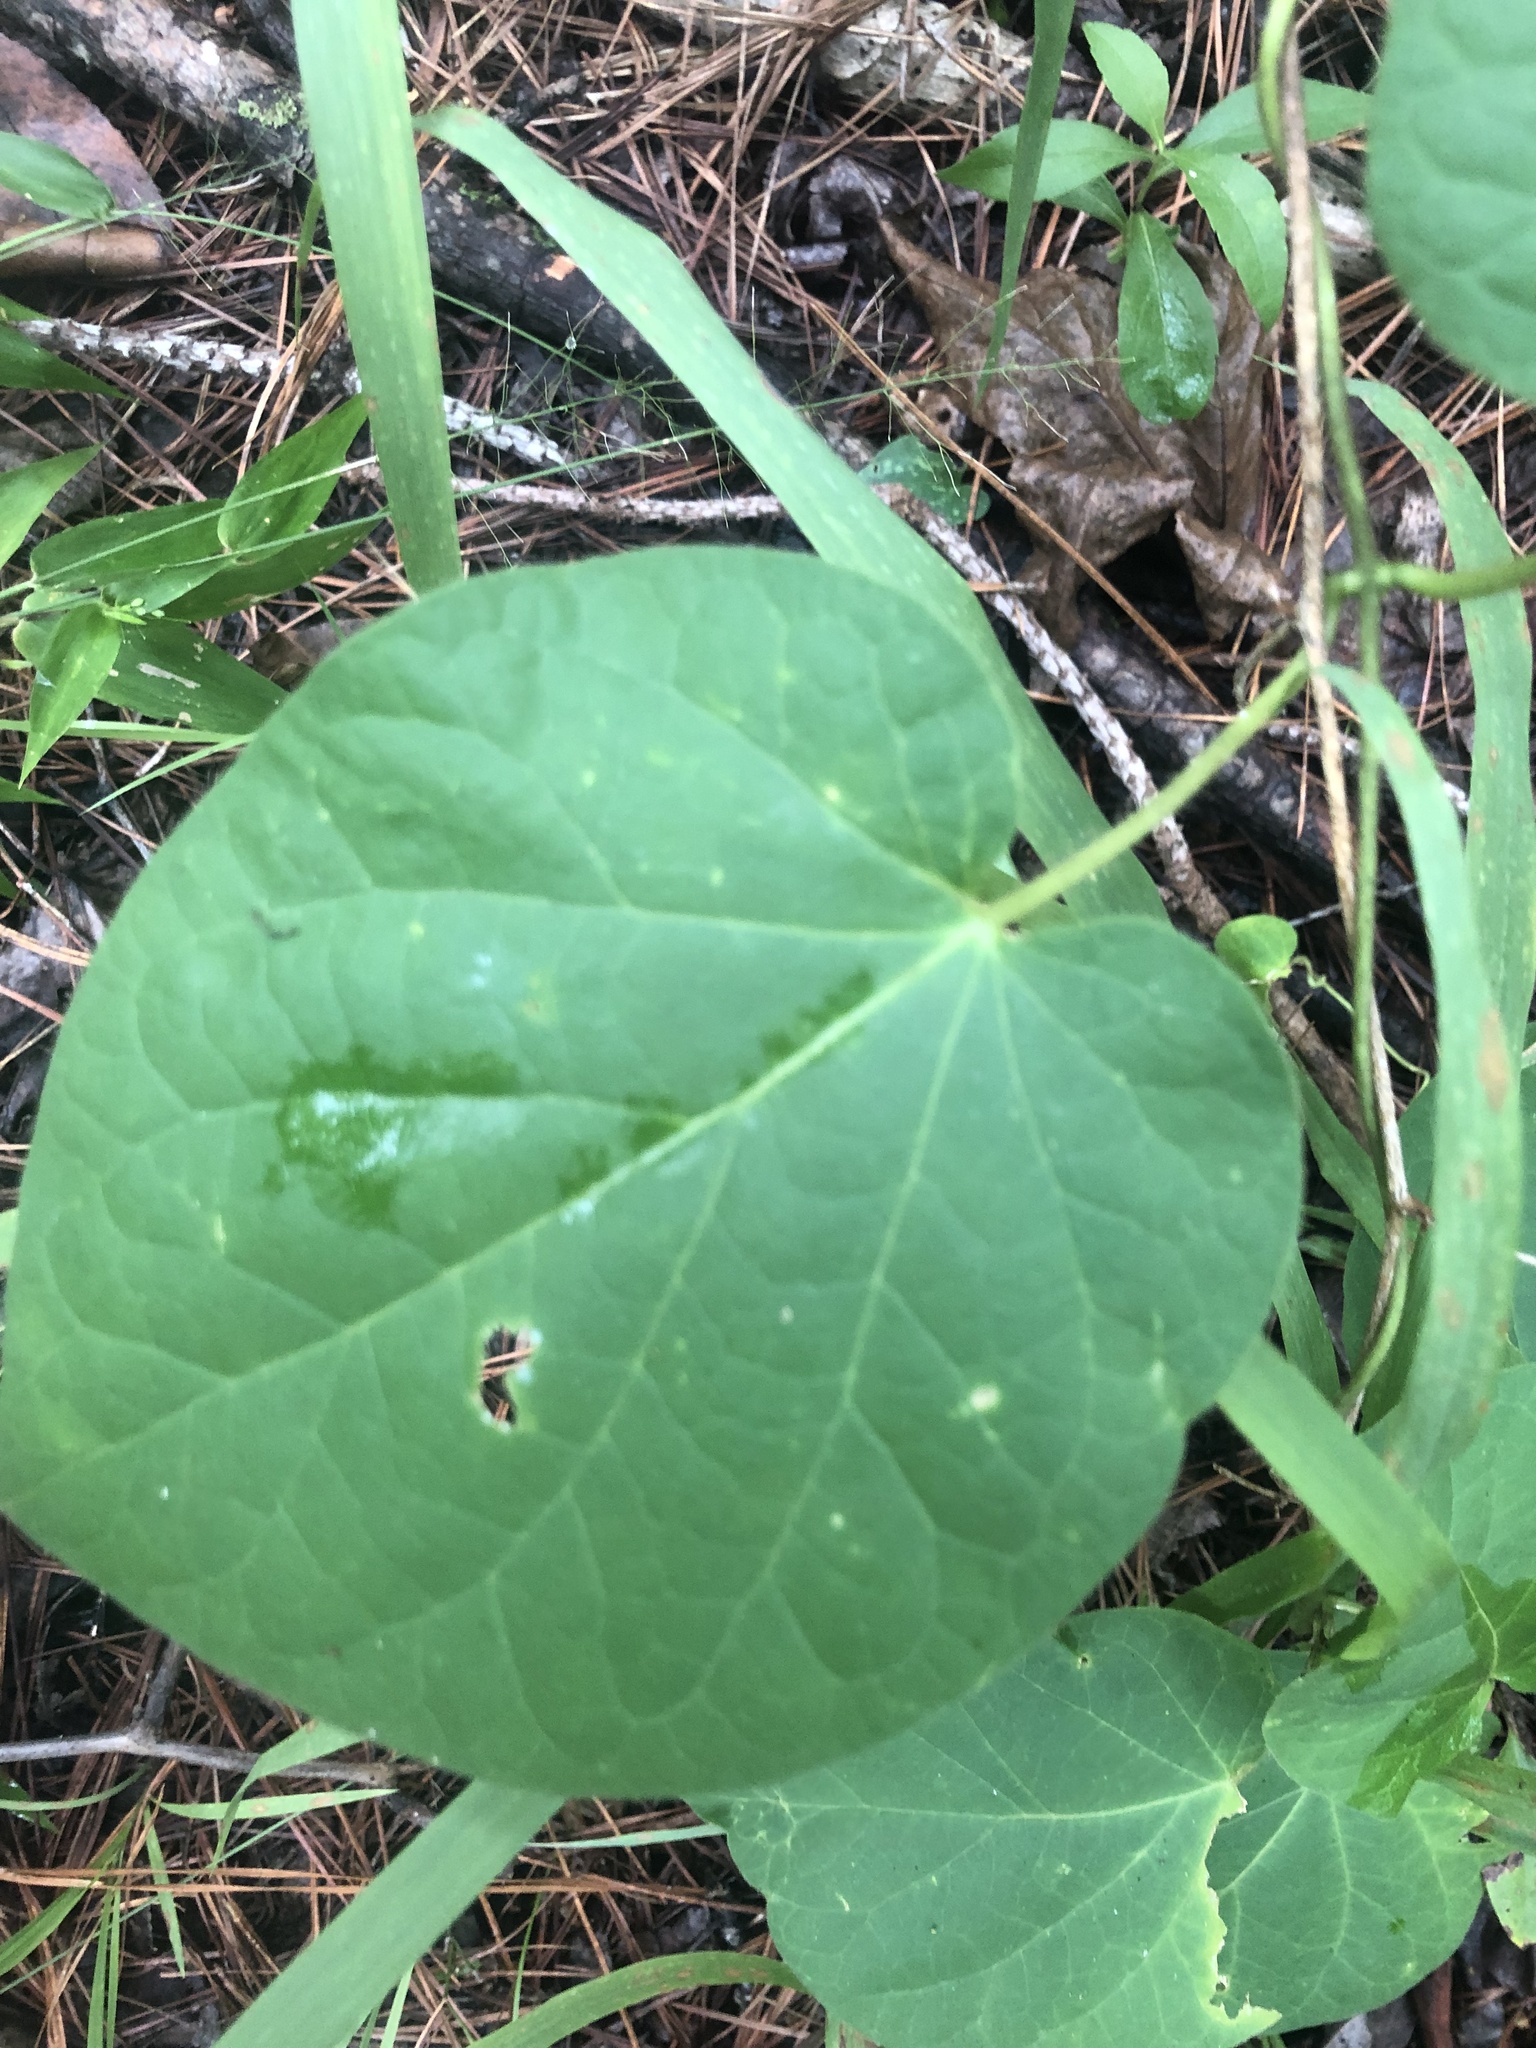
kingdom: Plantae
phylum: Tracheophyta
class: Magnoliopsida
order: Gentianales
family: Apocynaceae
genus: Matelea
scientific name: Matelea baldwyniana
